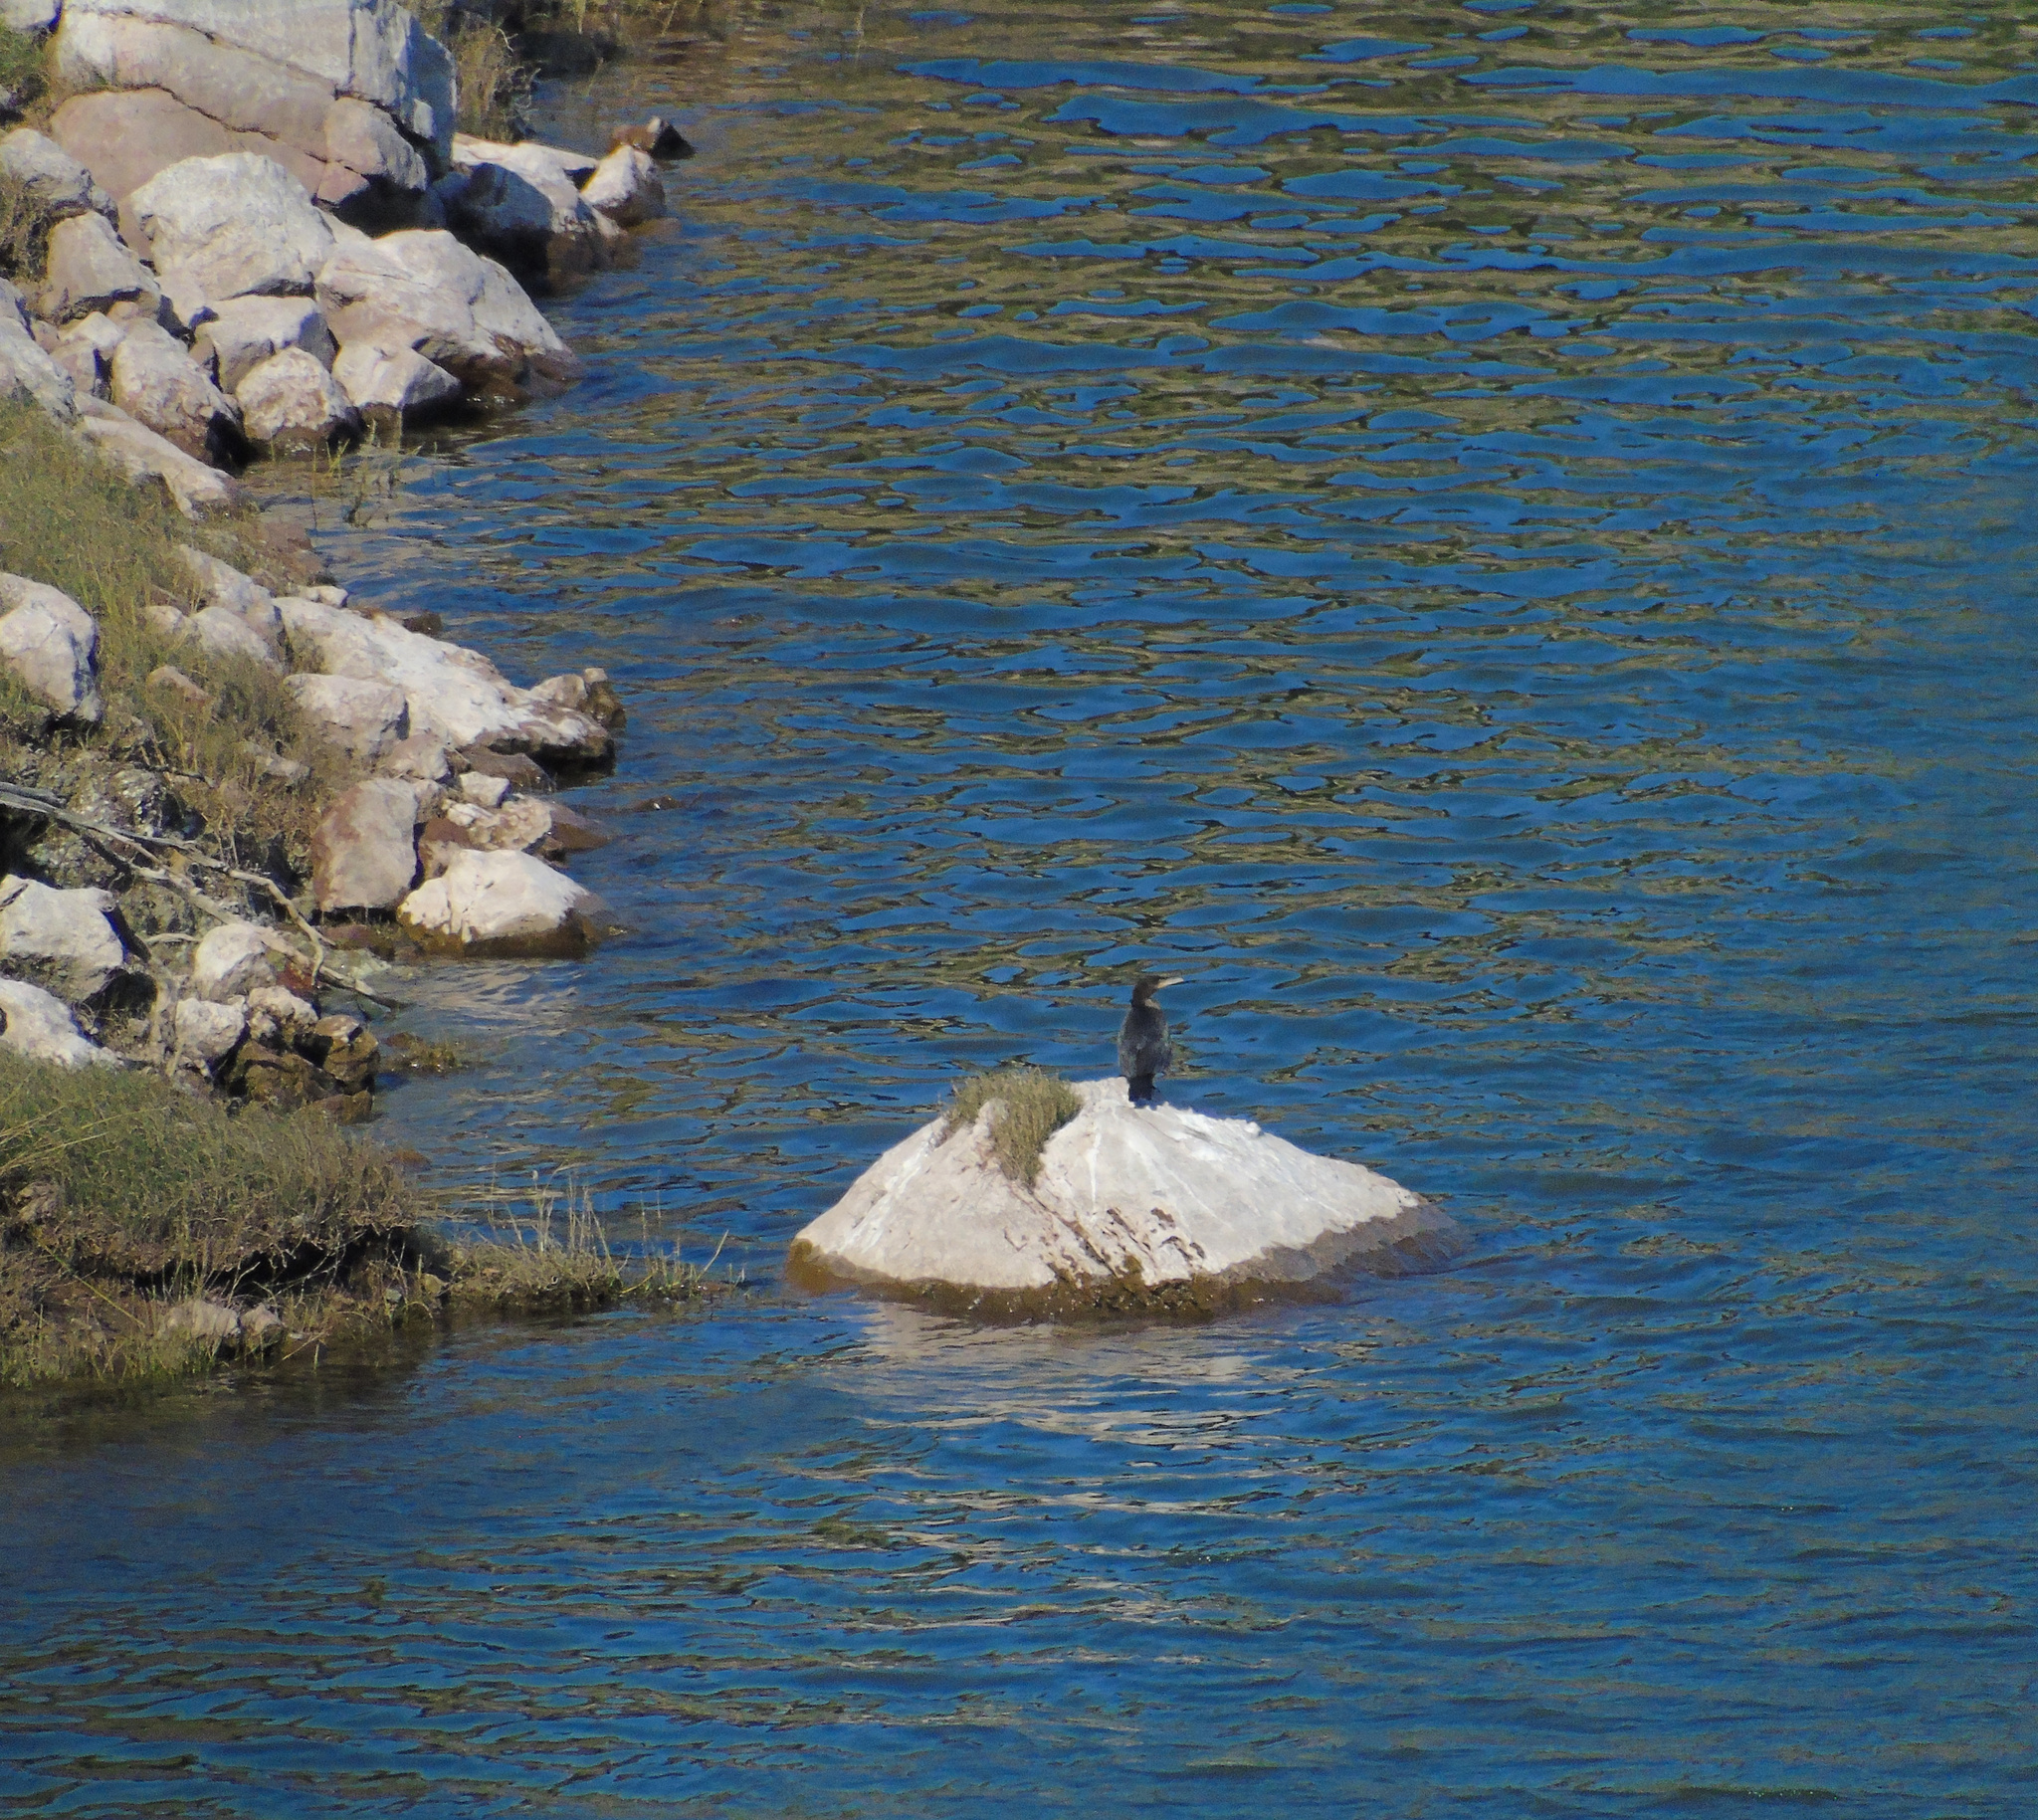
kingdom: Animalia
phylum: Chordata
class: Aves
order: Suliformes
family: Phalacrocoracidae
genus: Phalacrocorax
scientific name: Phalacrocorax brasilianus
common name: Neotropic cormorant
